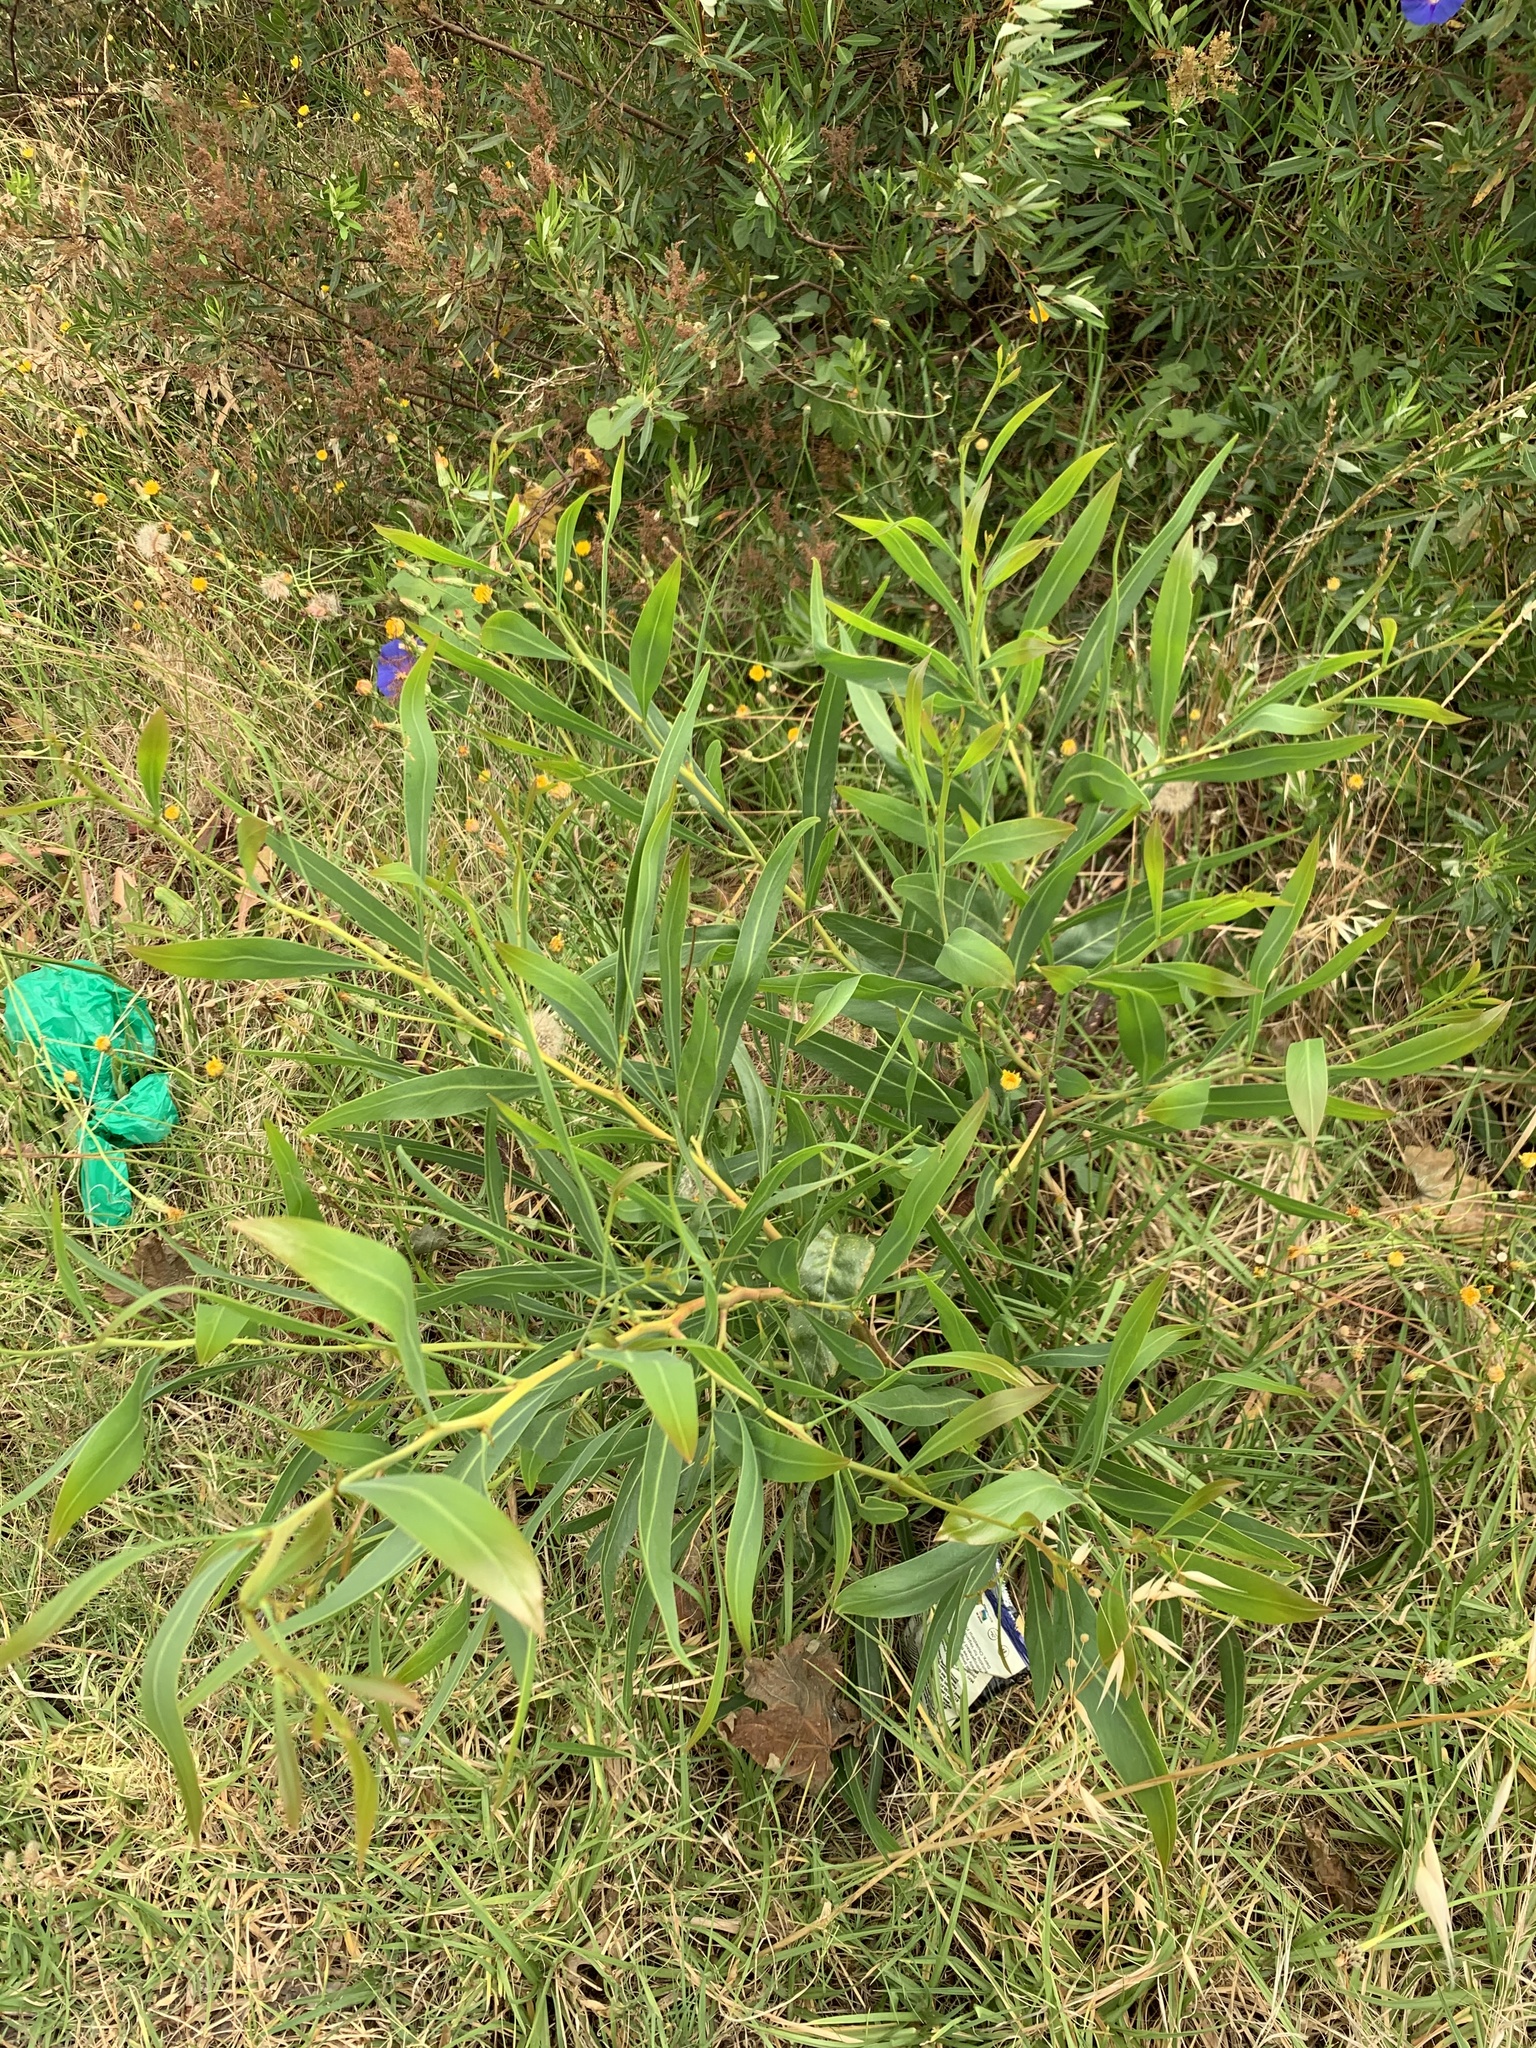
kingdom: Plantae
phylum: Tracheophyta
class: Magnoliopsida
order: Fabales
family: Fabaceae
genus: Acacia
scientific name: Acacia saligna
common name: Orange wattle
